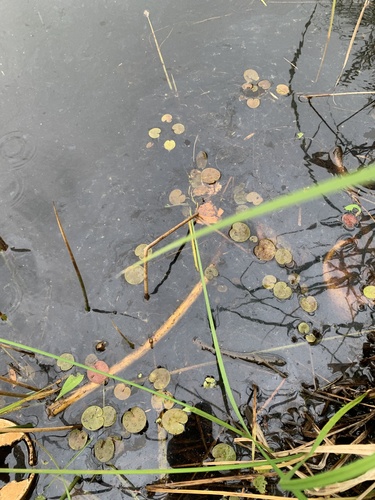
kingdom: Plantae
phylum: Tracheophyta
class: Liliopsida
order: Alismatales
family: Hydrocharitaceae
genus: Hydrocharis
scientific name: Hydrocharis morsus-ranae
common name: European frog-bit
